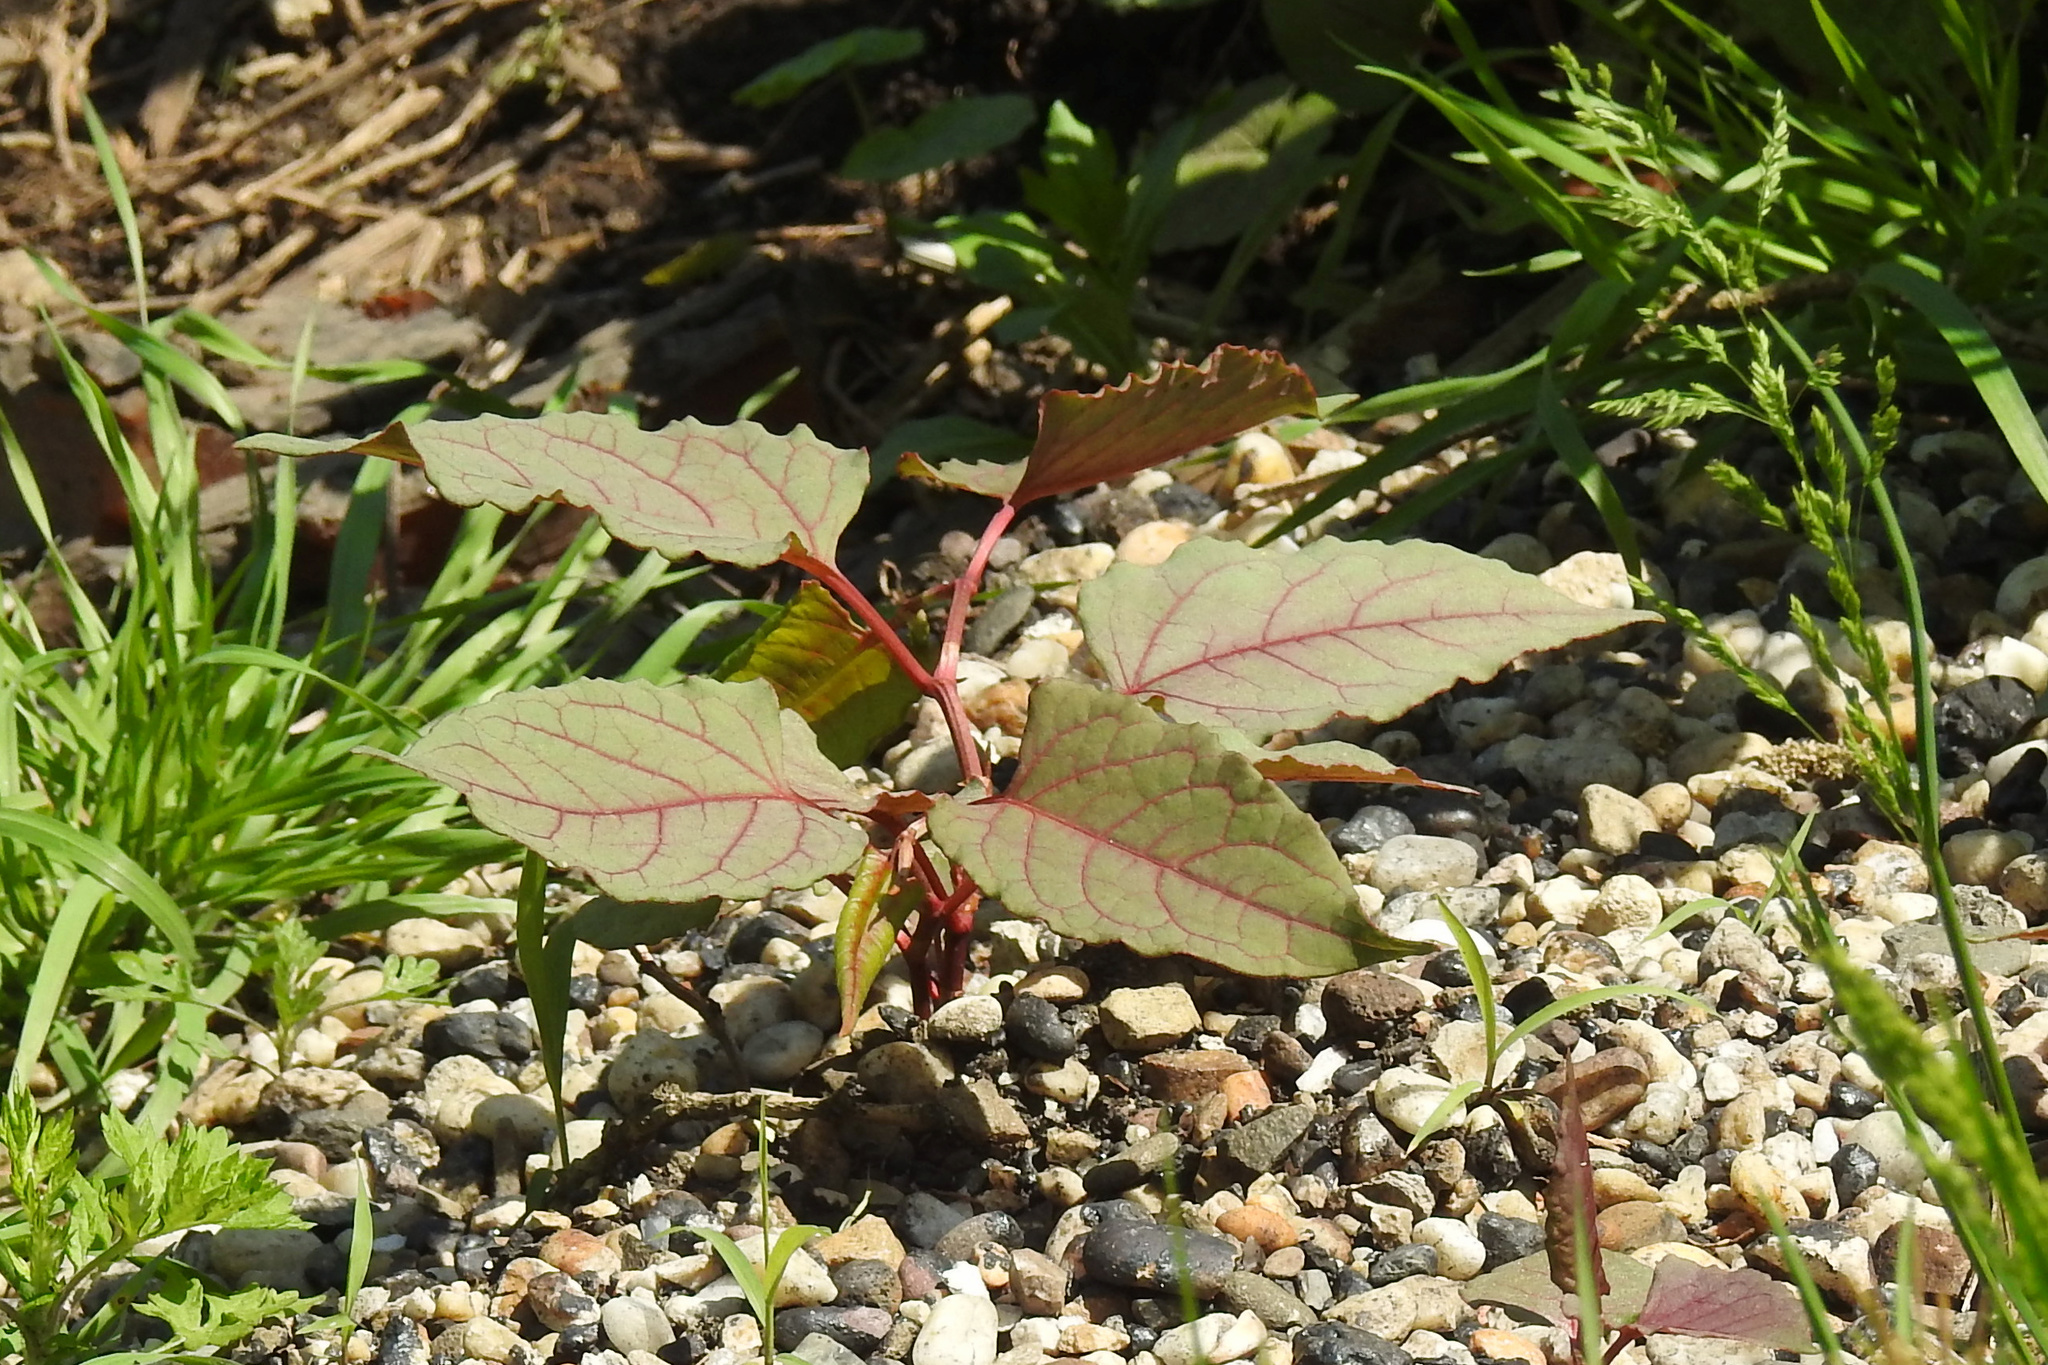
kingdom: Plantae
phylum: Tracheophyta
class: Magnoliopsida
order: Caryophyllales
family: Polygonaceae
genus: Reynoutria
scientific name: Reynoutria japonica
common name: Japanese knotweed
